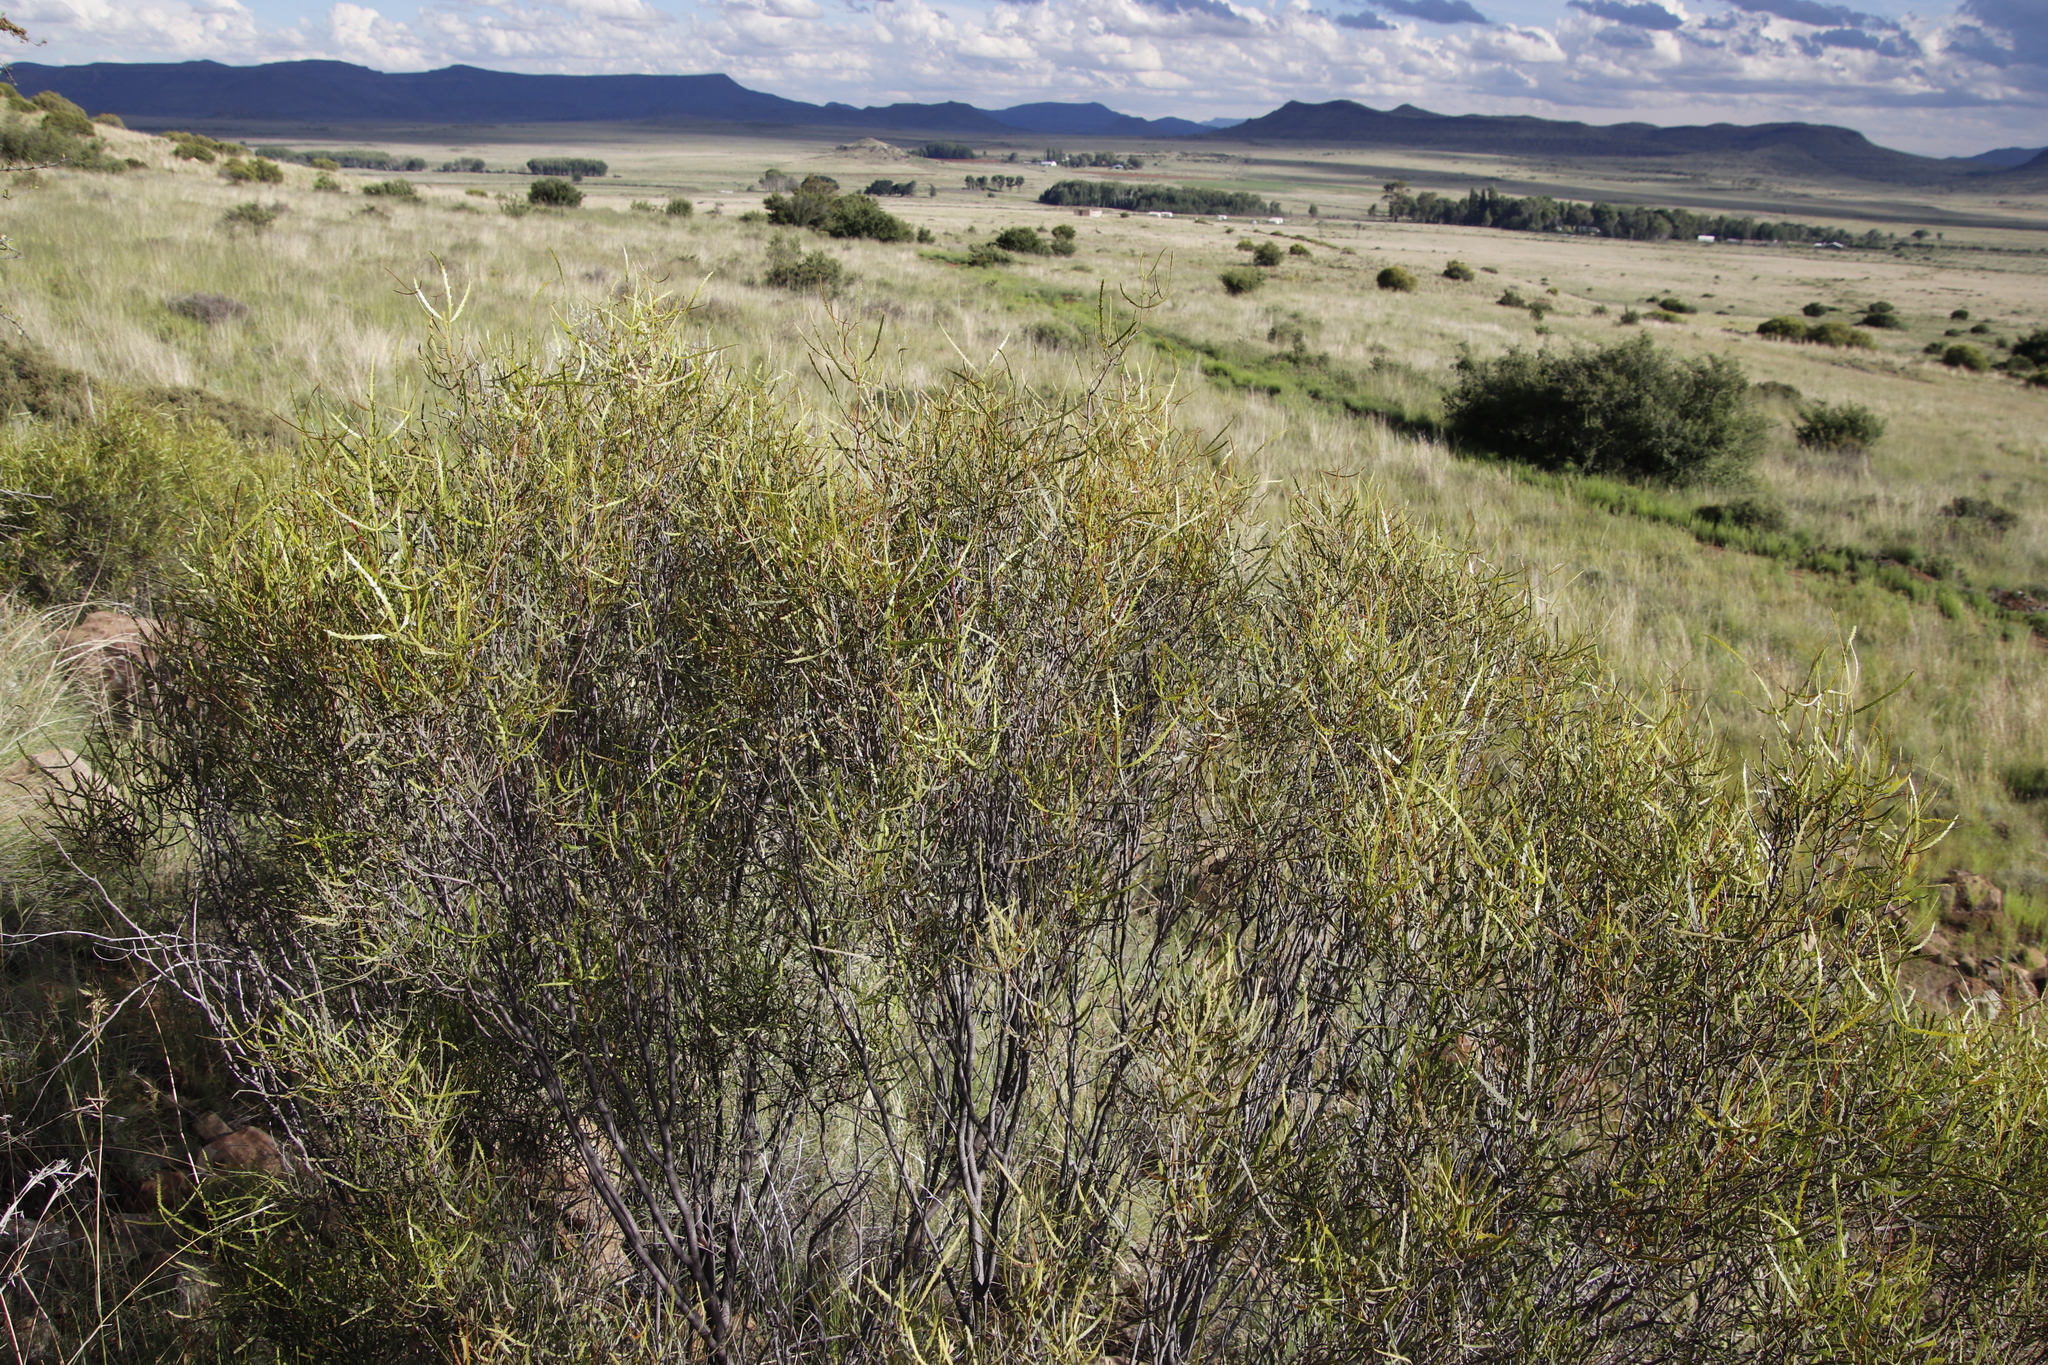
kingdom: Plantae
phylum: Tracheophyta
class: Magnoliopsida
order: Sapindales
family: Anacardiaceae
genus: Searsia
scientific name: Searsia erosa
